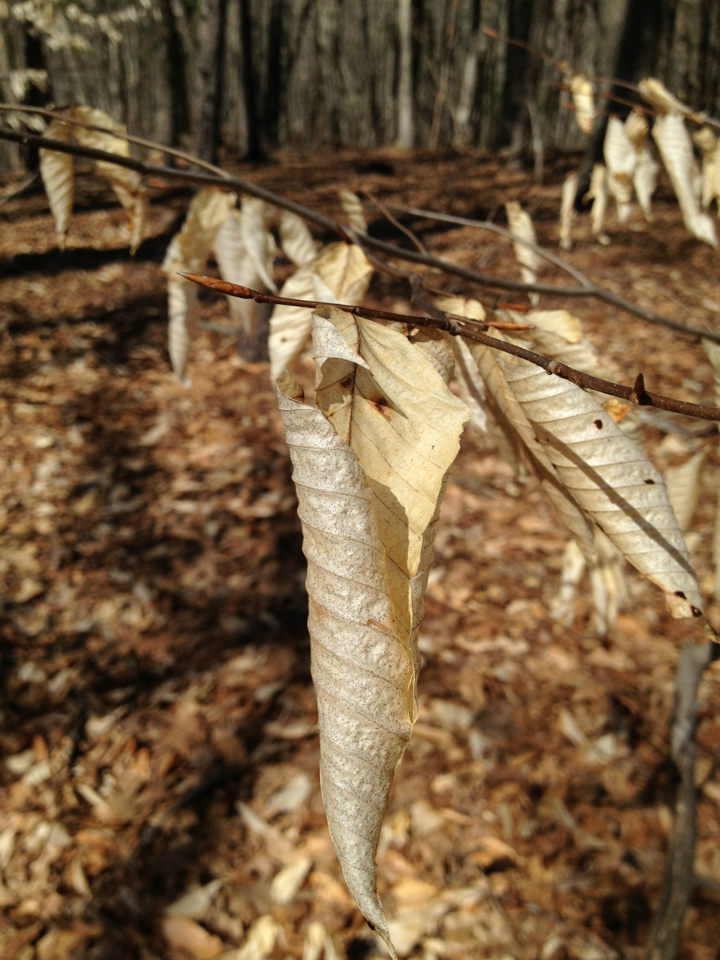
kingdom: Plantae
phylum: Tracheophyta
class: Magnoliopsida
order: Fagales
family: Fagaceae
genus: Fagus
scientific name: Fagus grandifolia
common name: American beech
